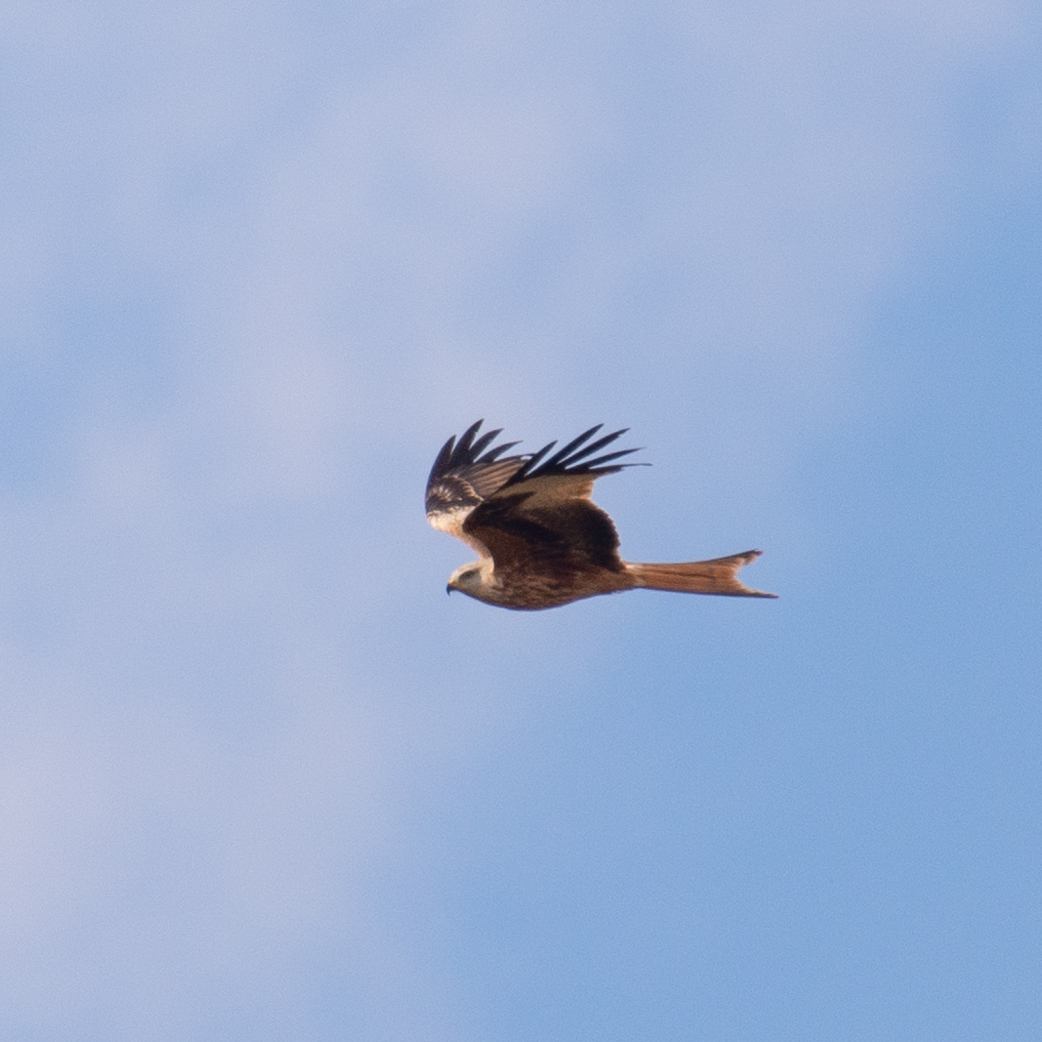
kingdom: Animalia
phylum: Chordata
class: Aves
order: Accipitriformes
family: Accipitridae
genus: Milvus
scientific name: Milvus milvus
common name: Red kite
